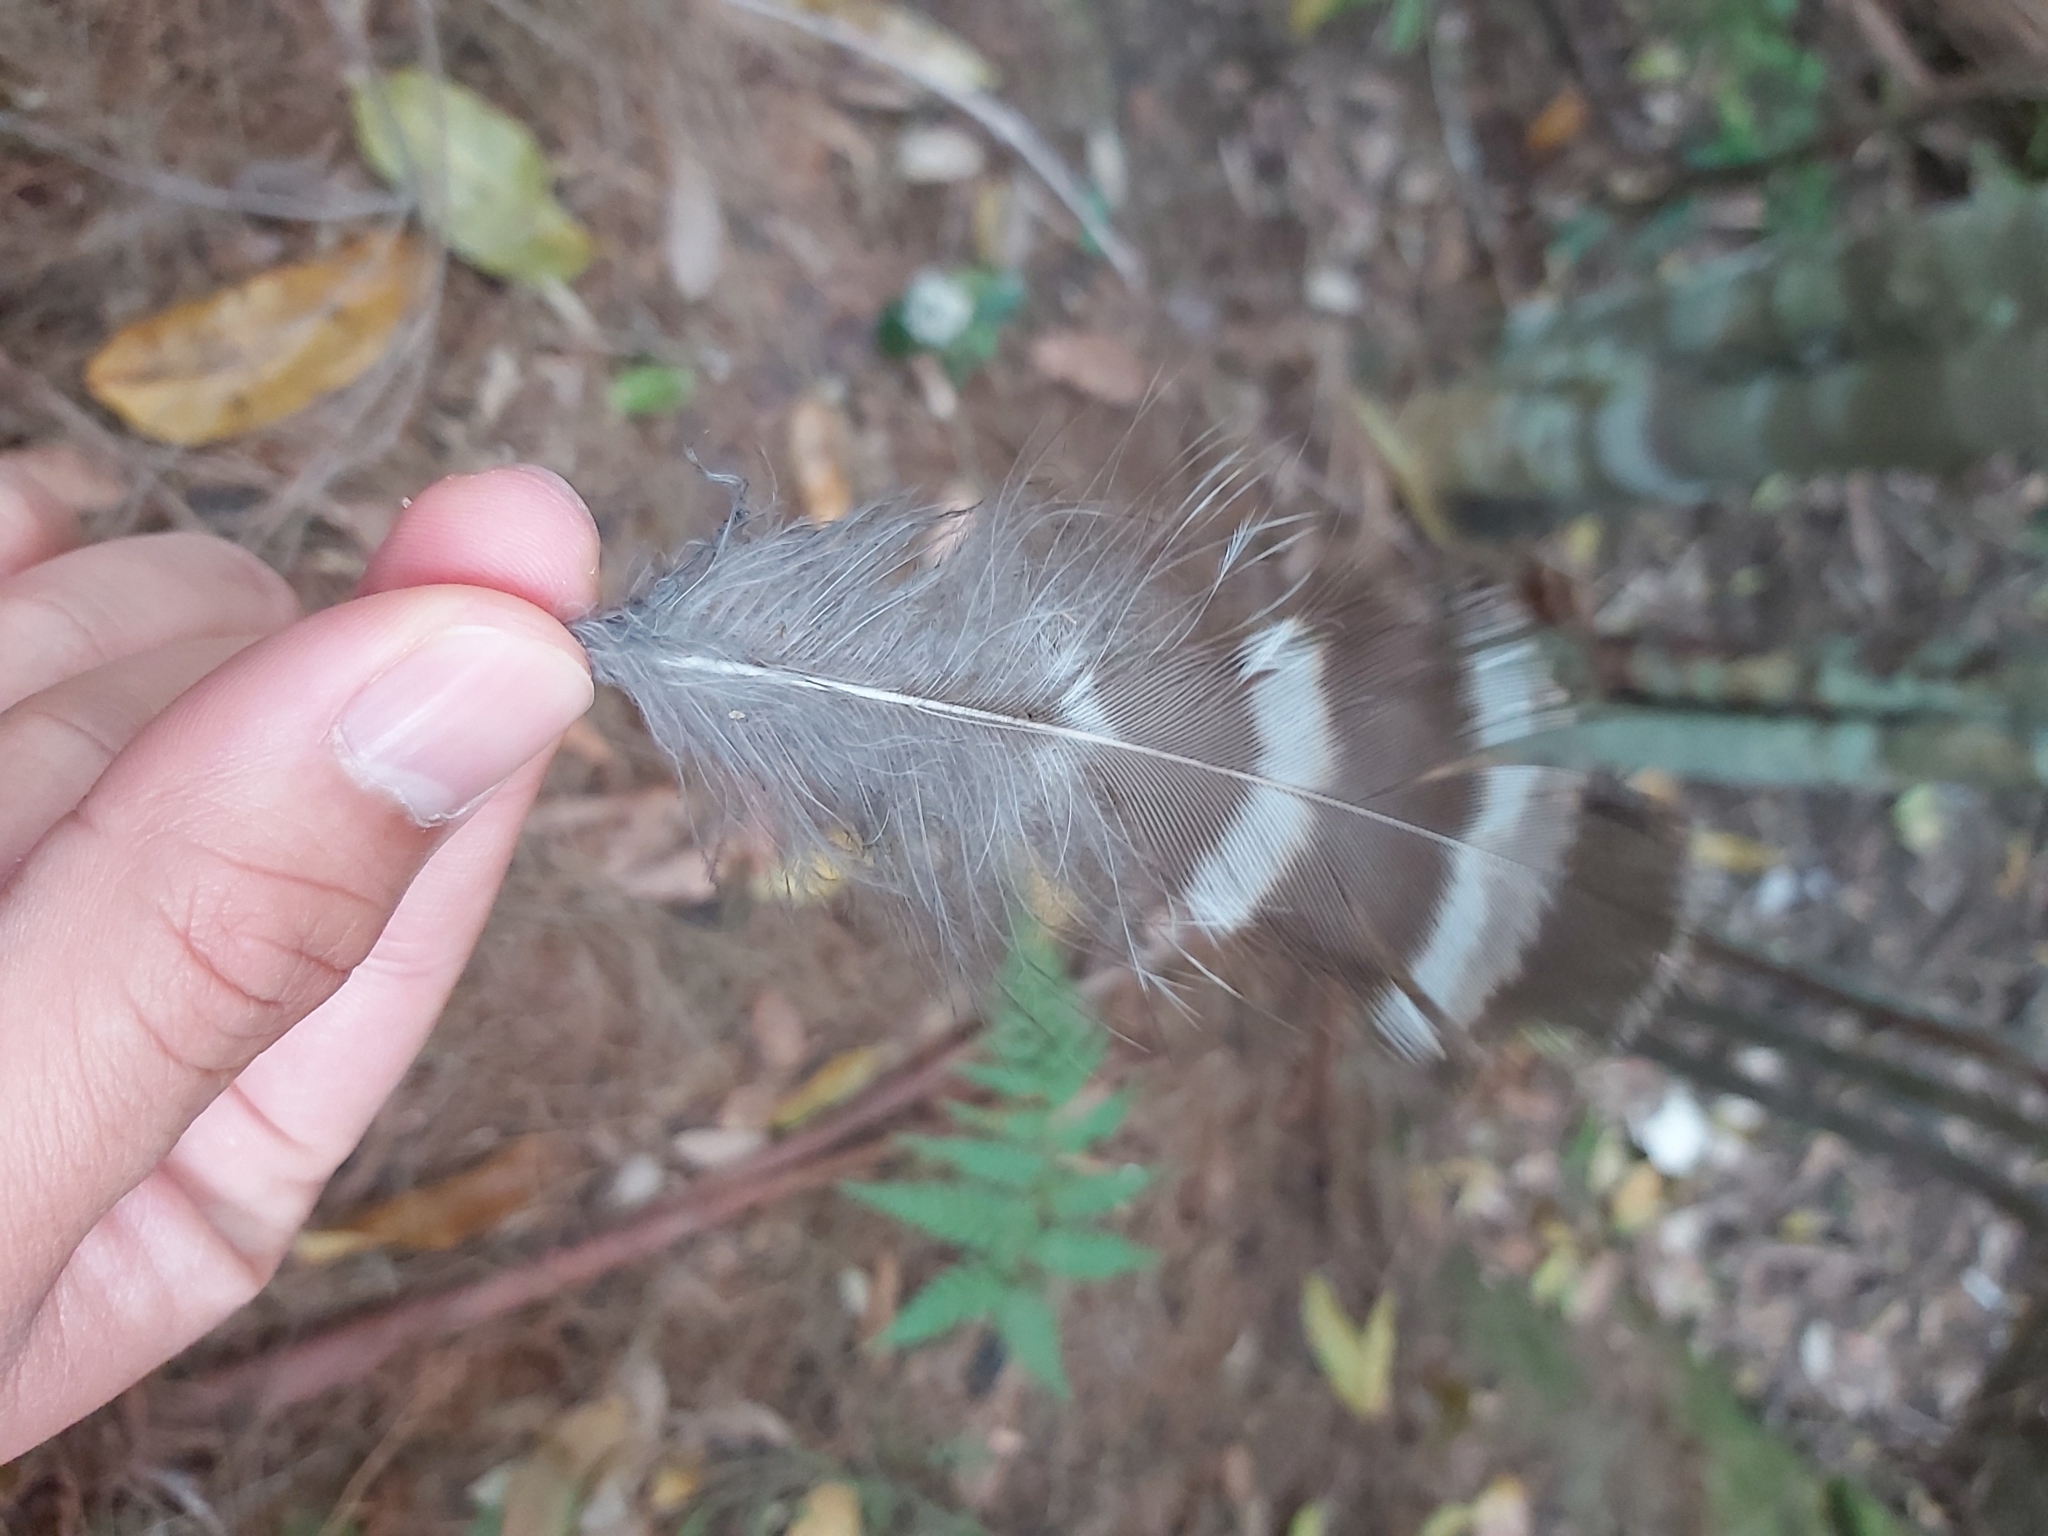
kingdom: Animalia
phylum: Chordata
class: Aves
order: Strigiformes
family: Strigidae
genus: Ninox
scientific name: Ninox strenua
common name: Powerful owl
